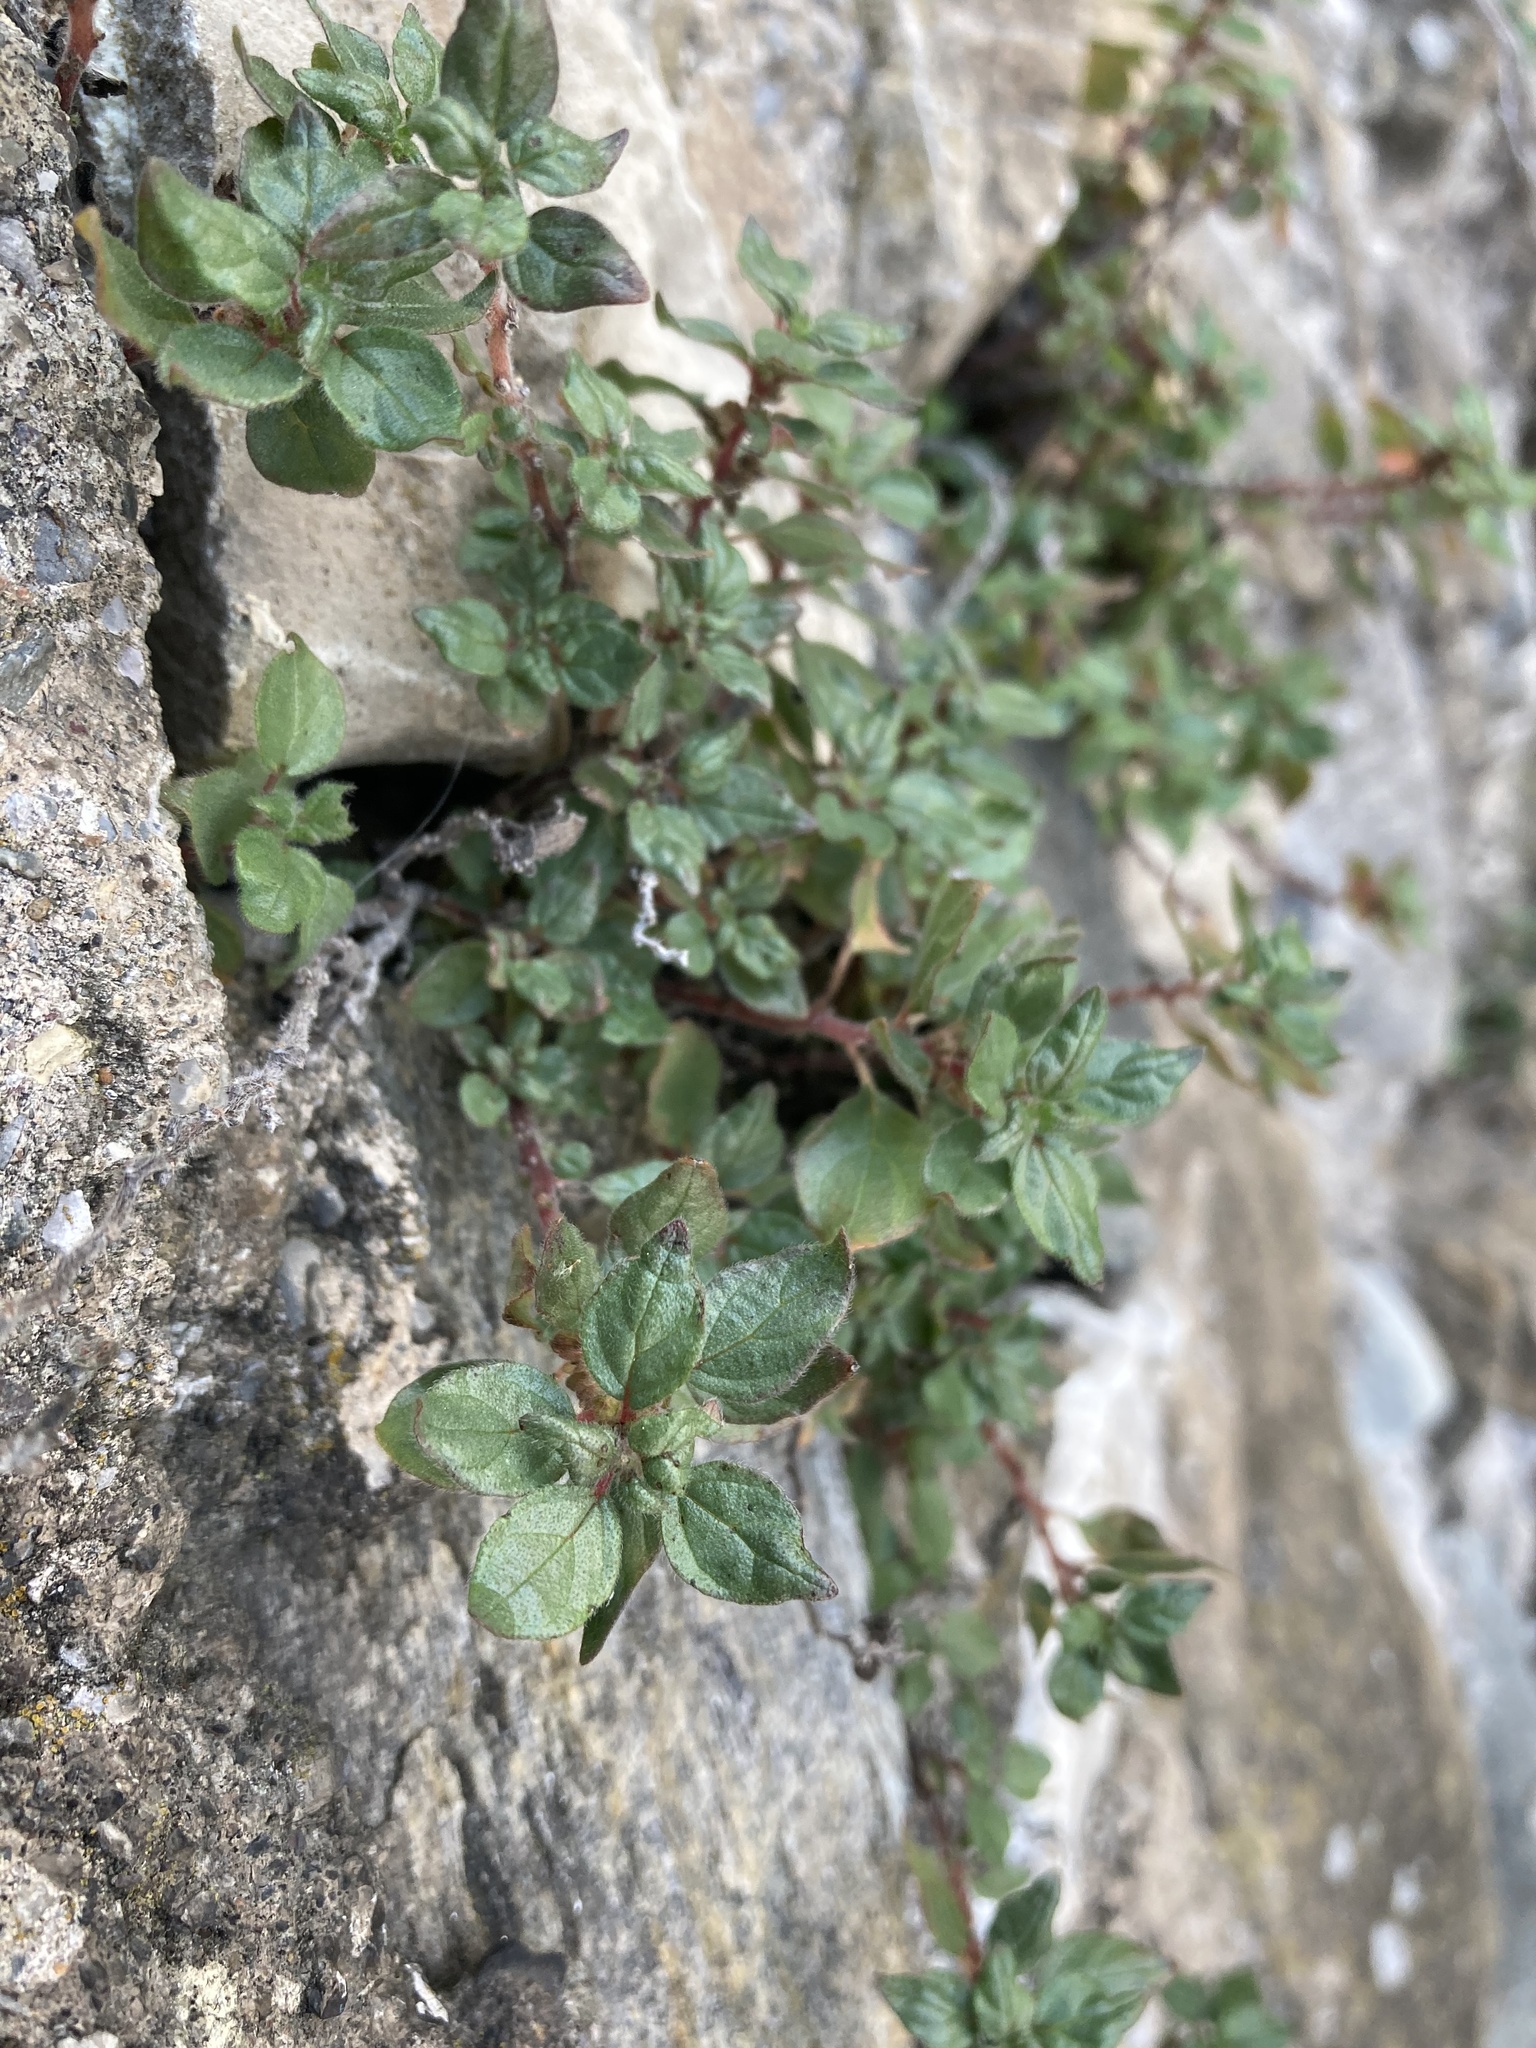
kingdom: Plantae
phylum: Tracheophyta
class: Magnoliopsida
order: Rosales
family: Urticaceae
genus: Parietaria
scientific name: Parietaria judaica
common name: Pellitory-of-the-wall
